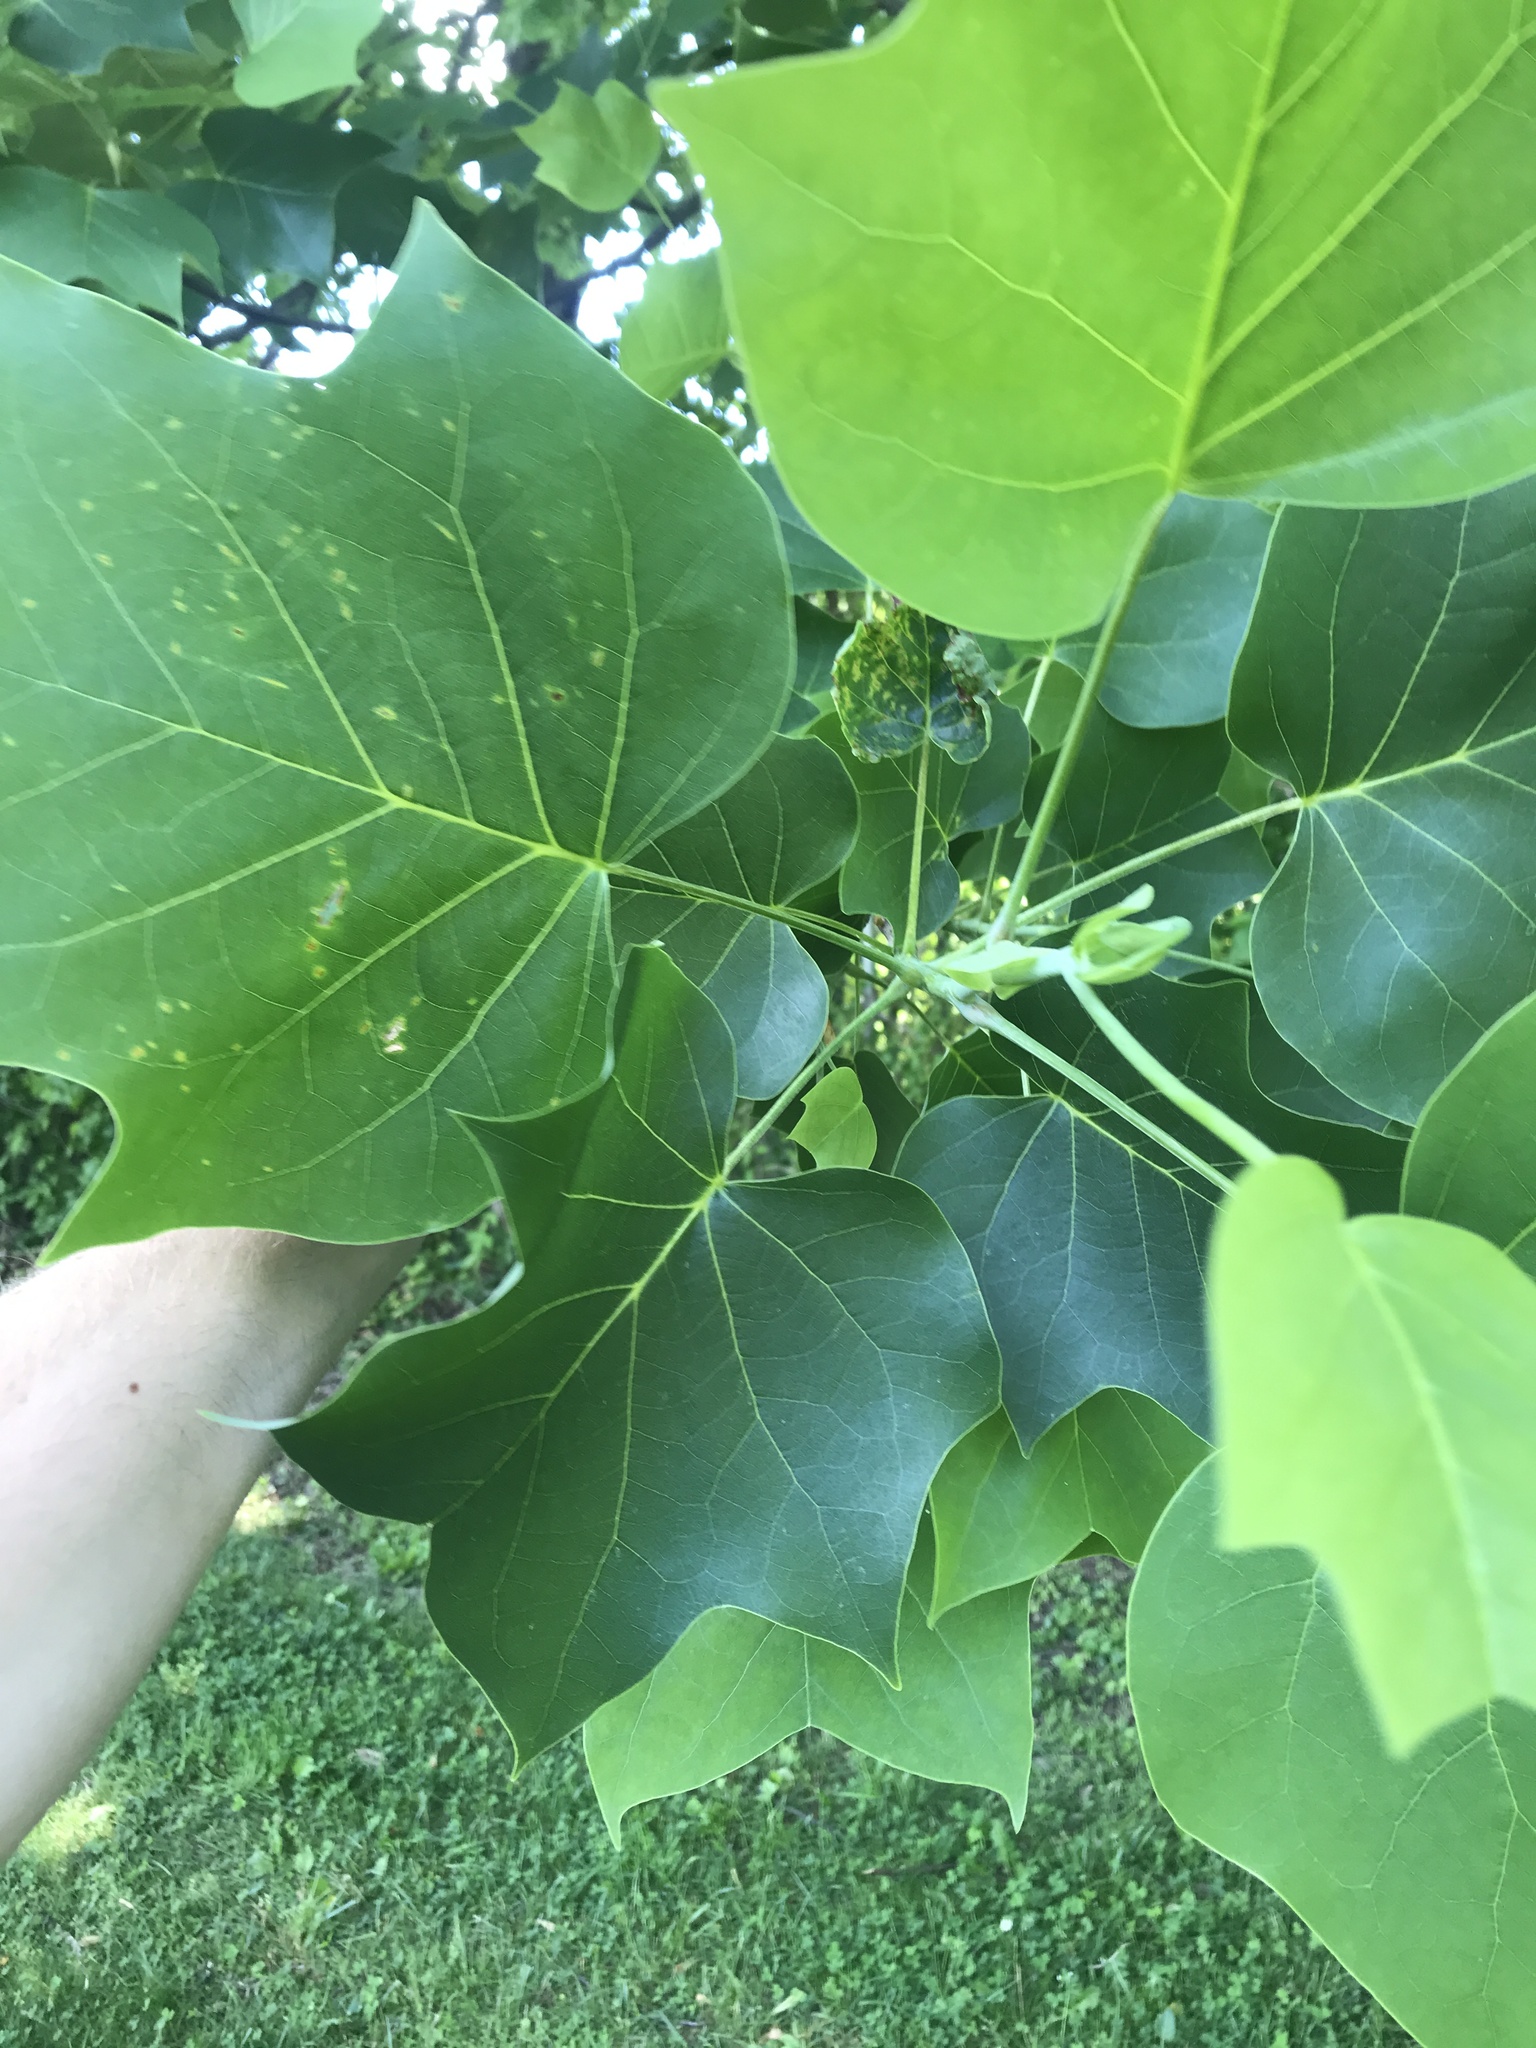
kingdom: Plantae
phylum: Tracheophyta
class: Magnoliopsida
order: Magnoliales
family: Magnoliaceae
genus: Liriodendron
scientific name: Liriodendron tulipifera
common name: Tulip tree
